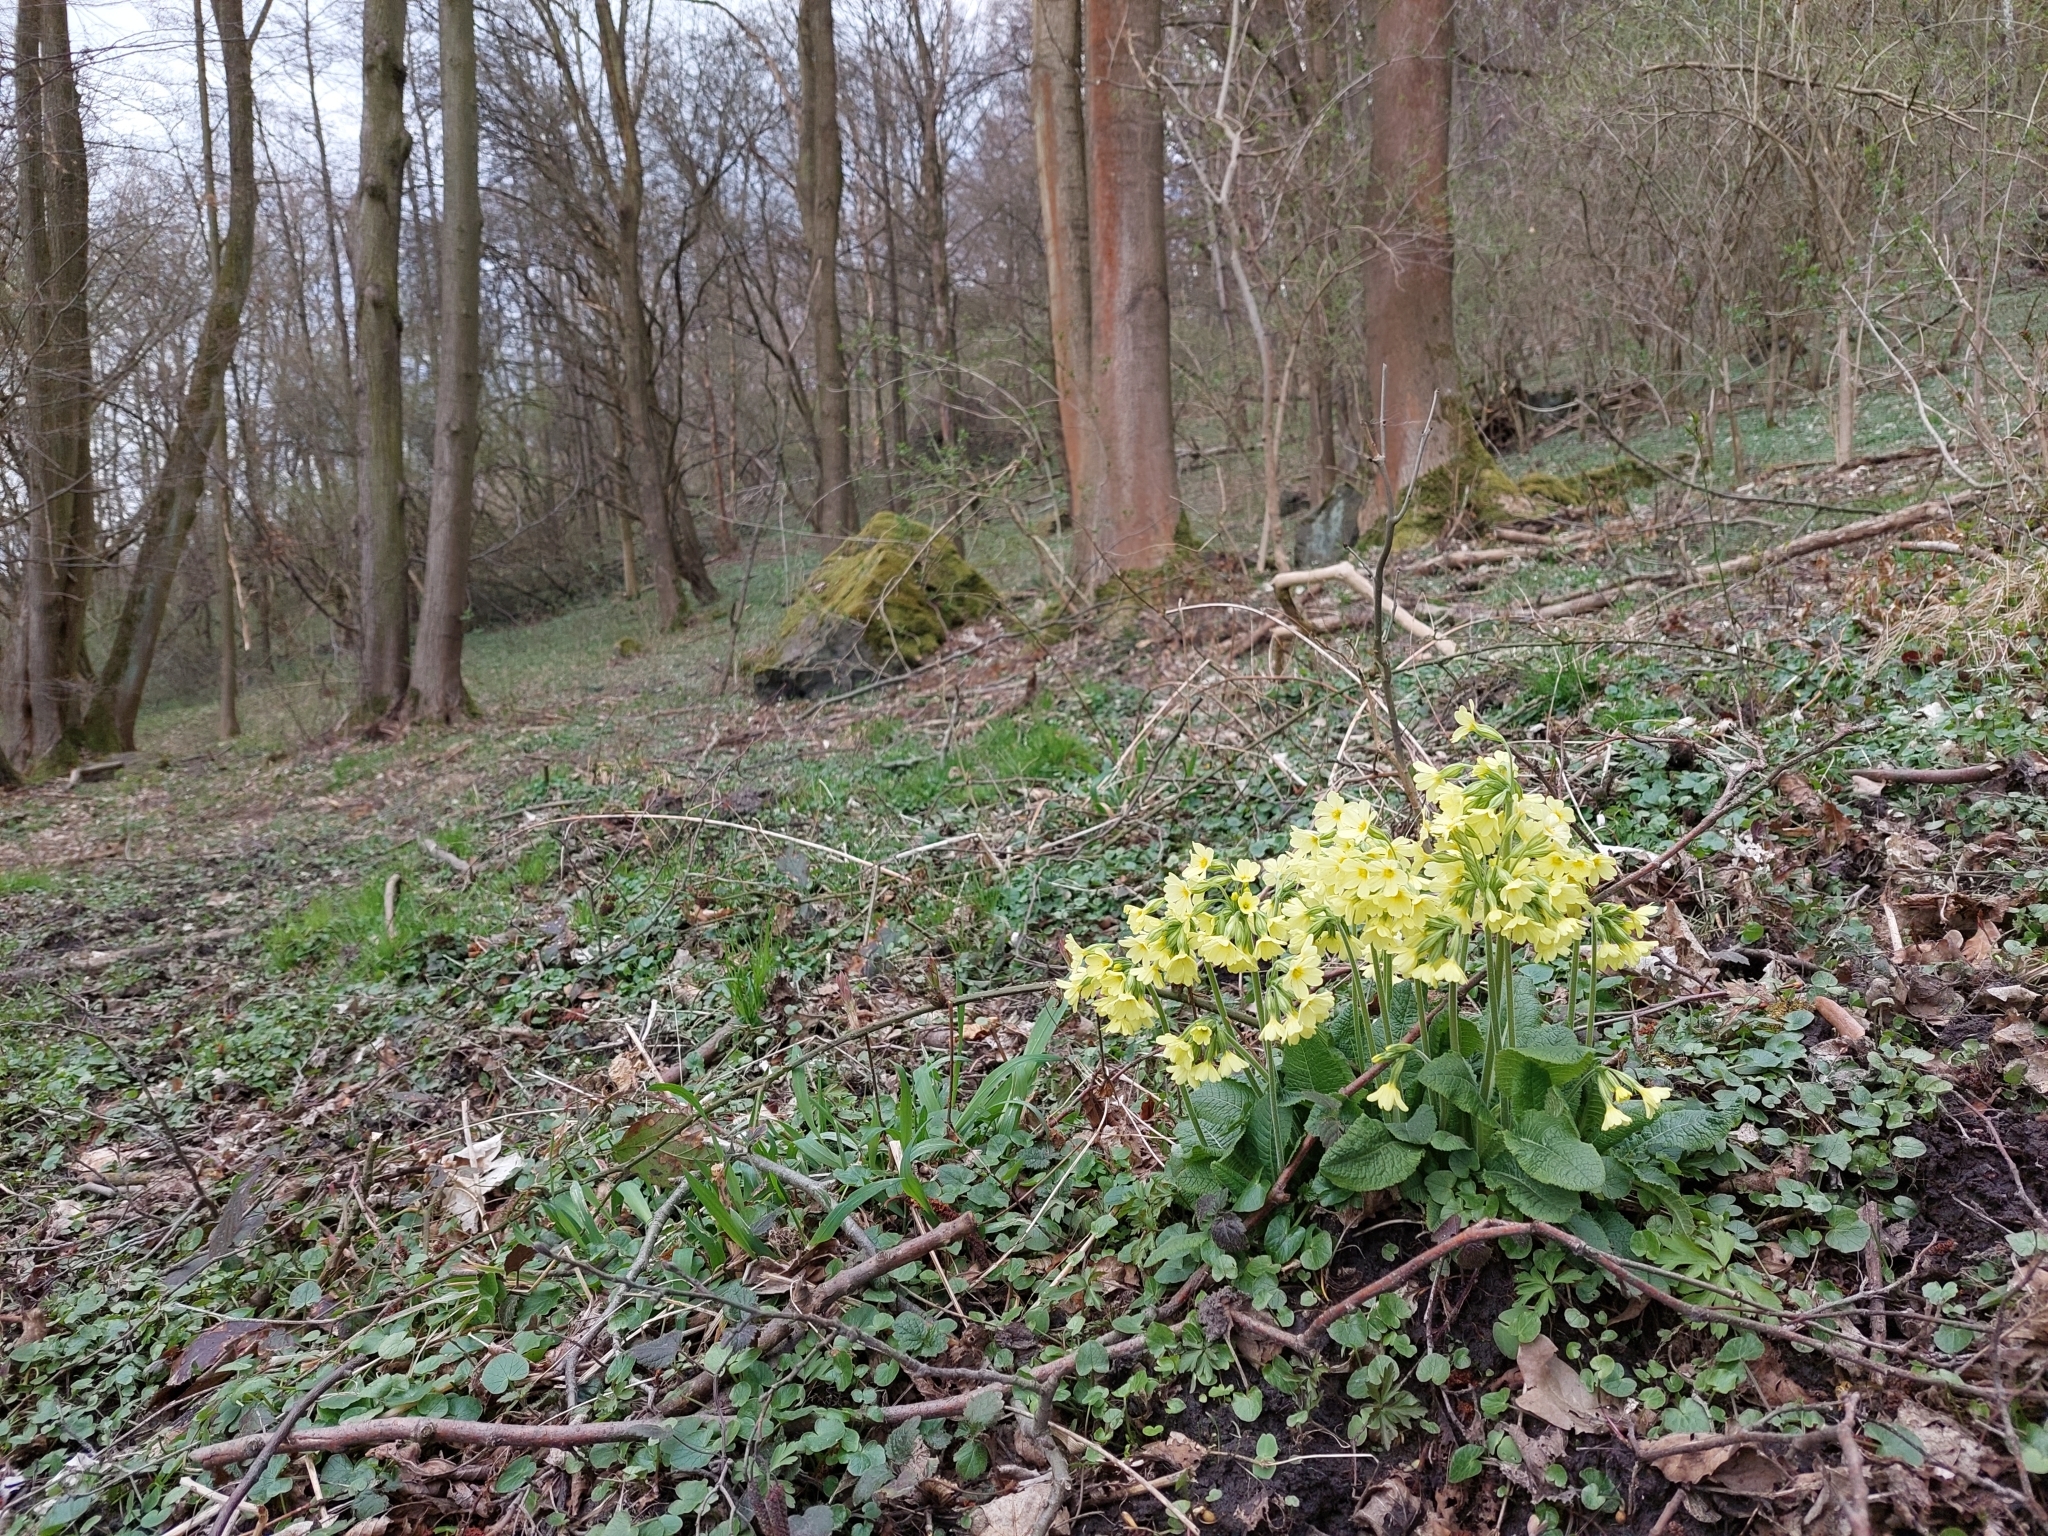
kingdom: Plantae
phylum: Tracheophyta
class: Magnoliopsida
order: Ericales
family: Primulaceae
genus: Primula
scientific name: Primula elatior
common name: Oxlip
